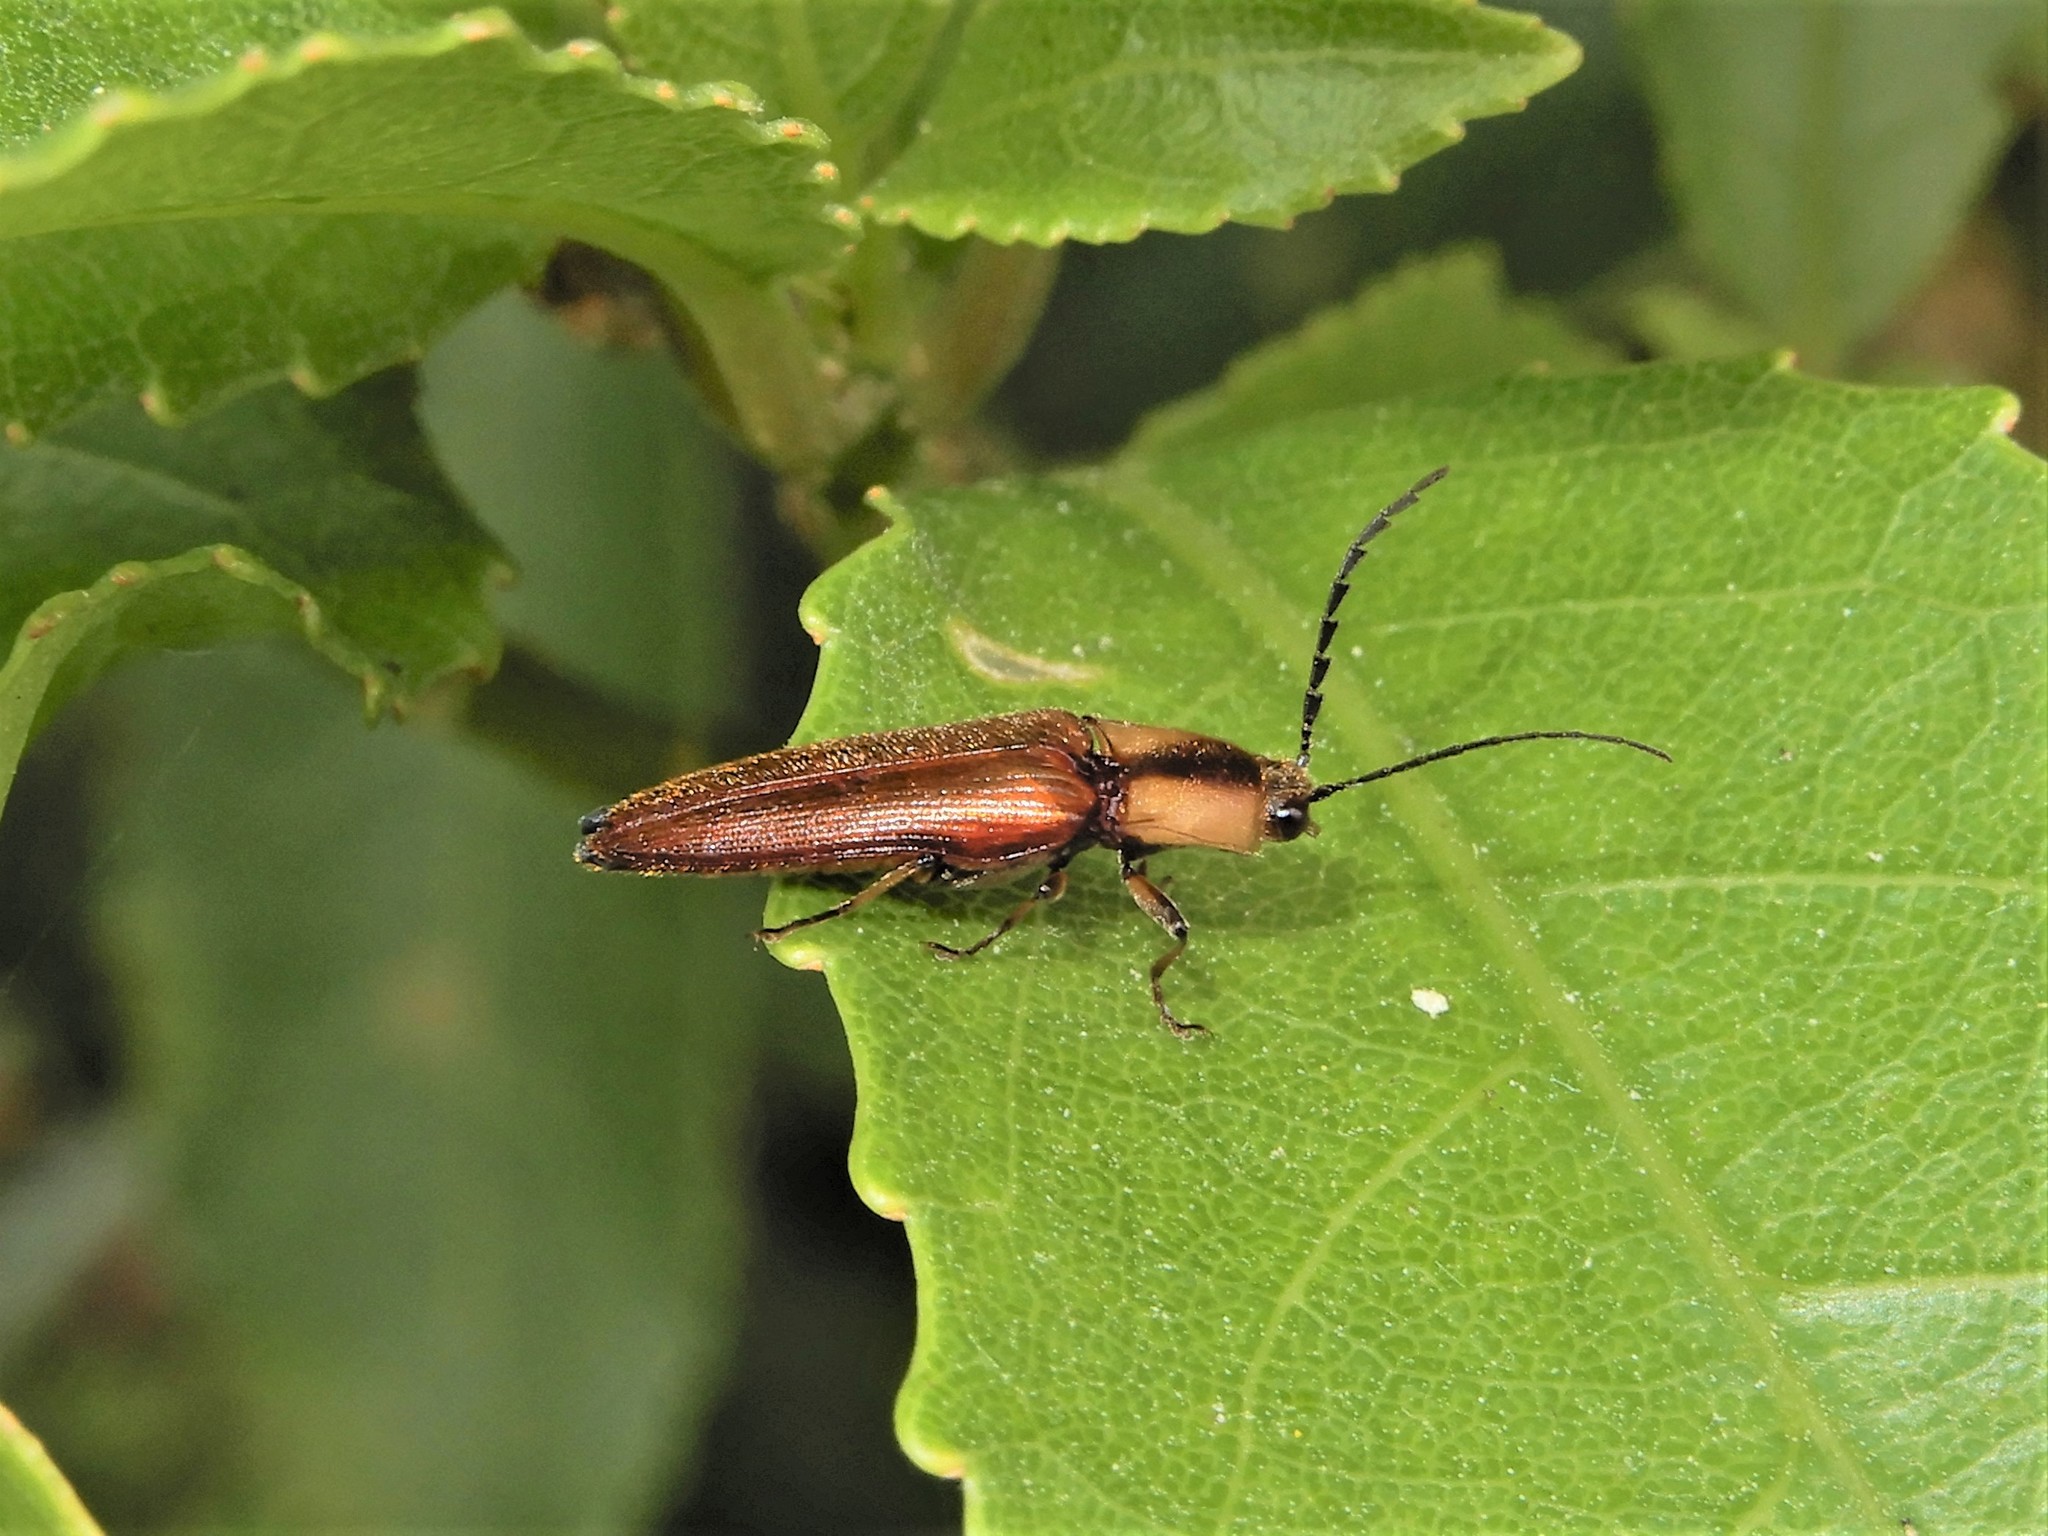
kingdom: Animalia
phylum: Arthropoda
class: Insecta
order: Coleoptera
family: Elateridae
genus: Sphaenelater
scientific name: Sphaenelater
